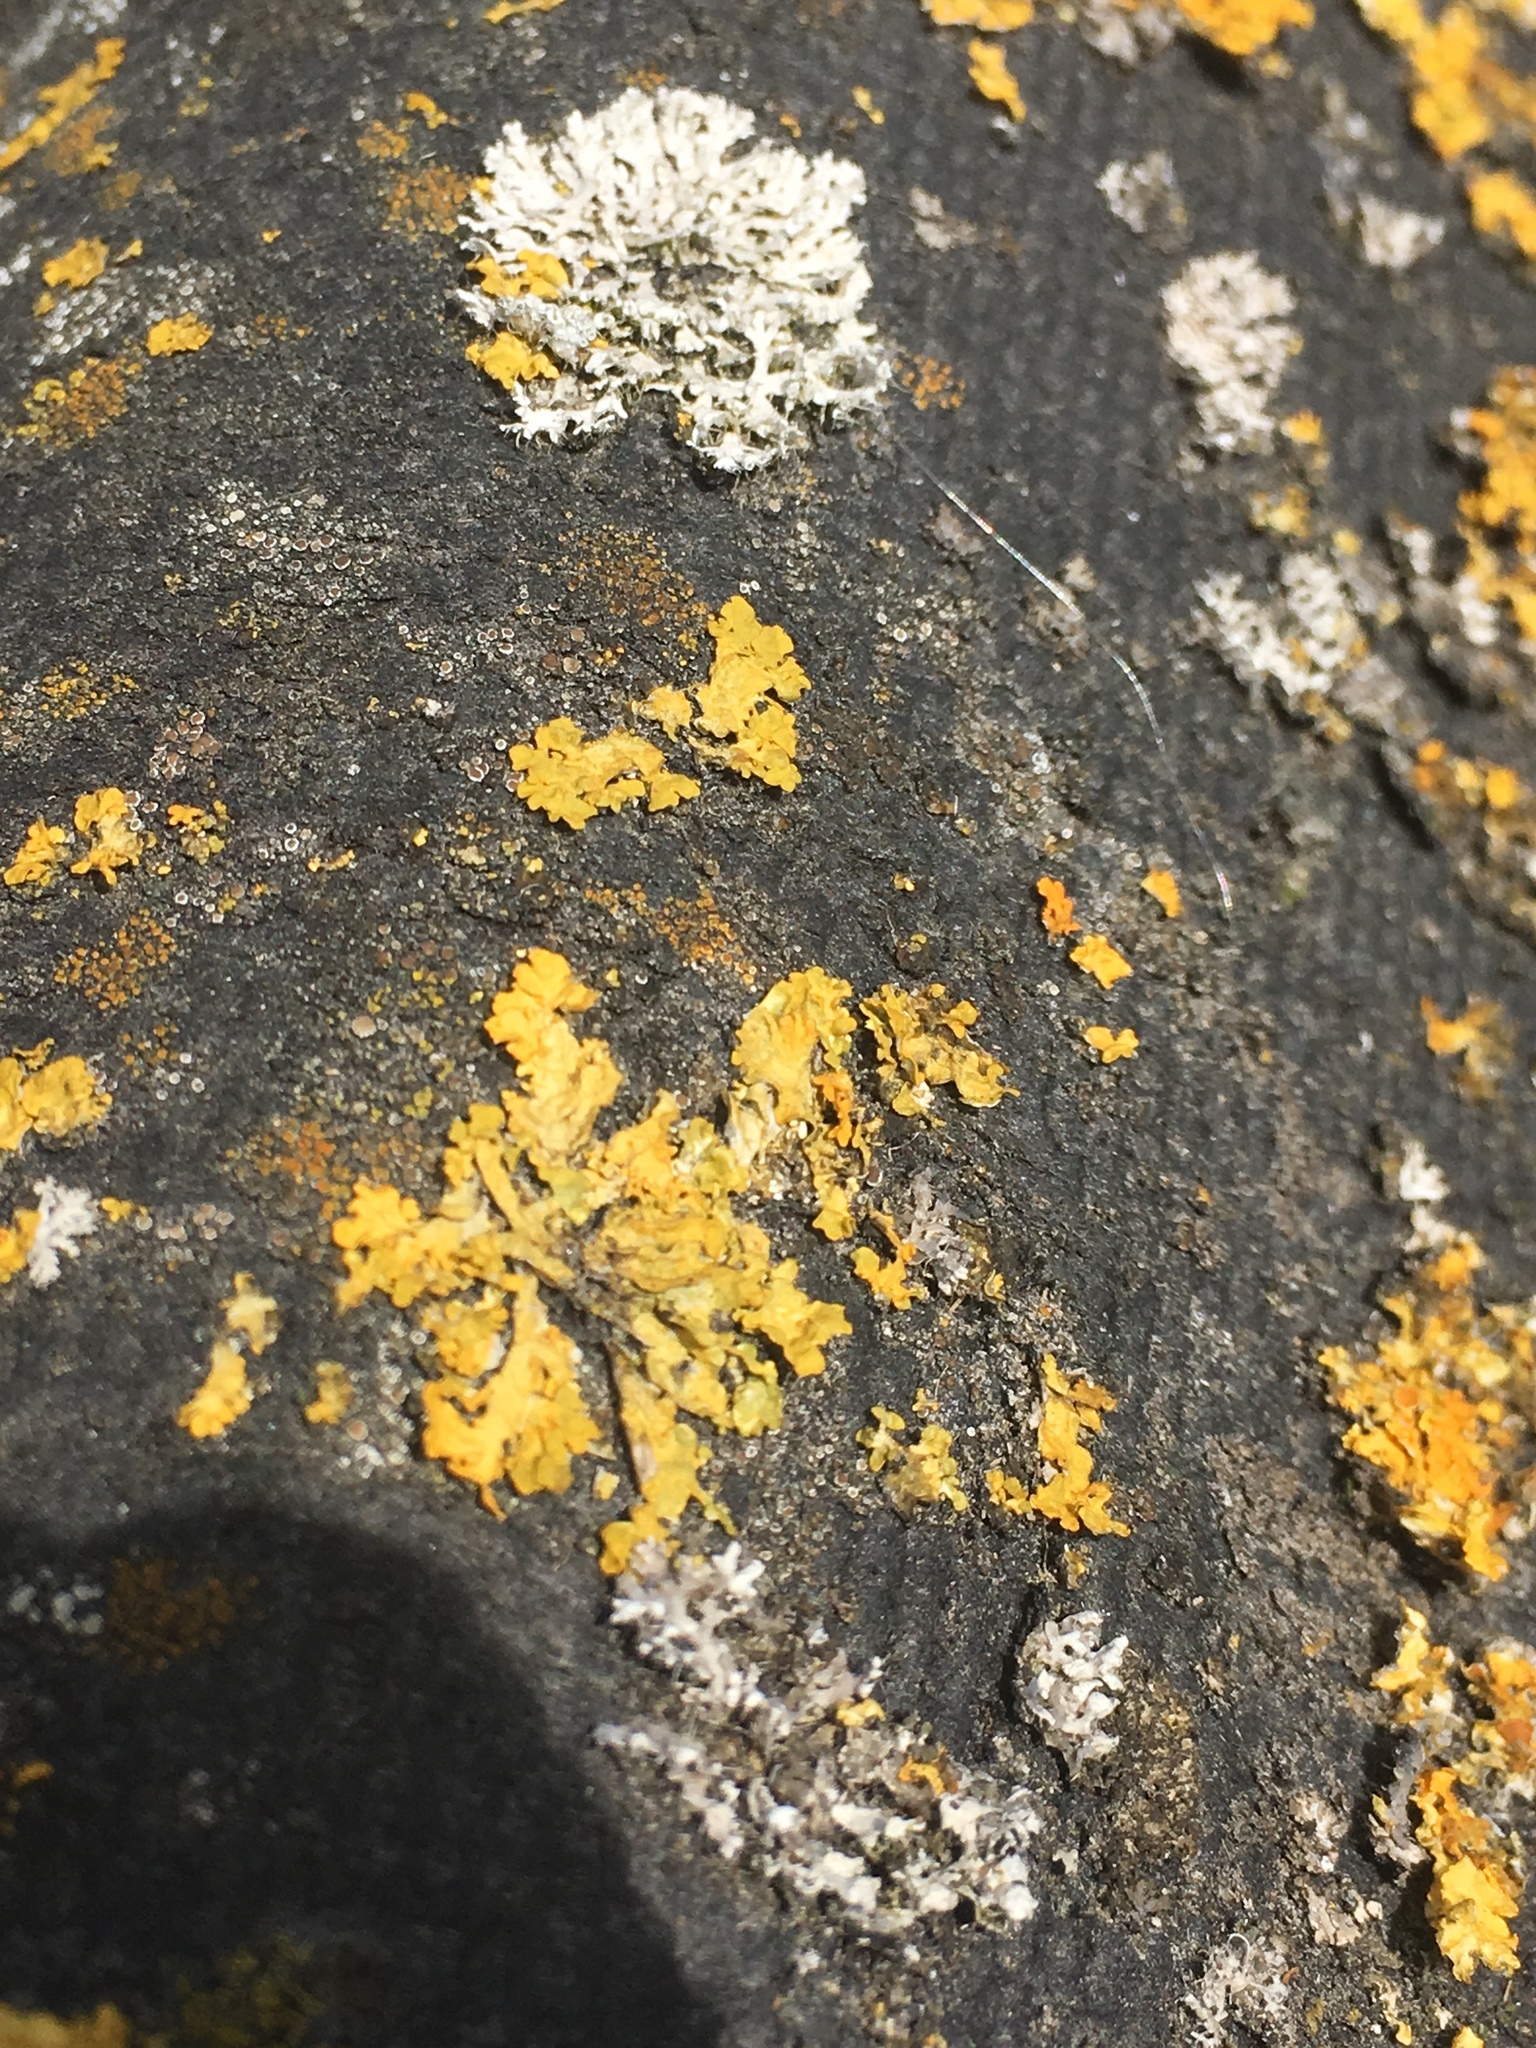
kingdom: Fungi
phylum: Ascomycota
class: Lecanoromycetes
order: Teloschistales
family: Teloschistaceae
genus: Xanthoria
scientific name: Xanthoria parietina
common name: Common orange lichen
